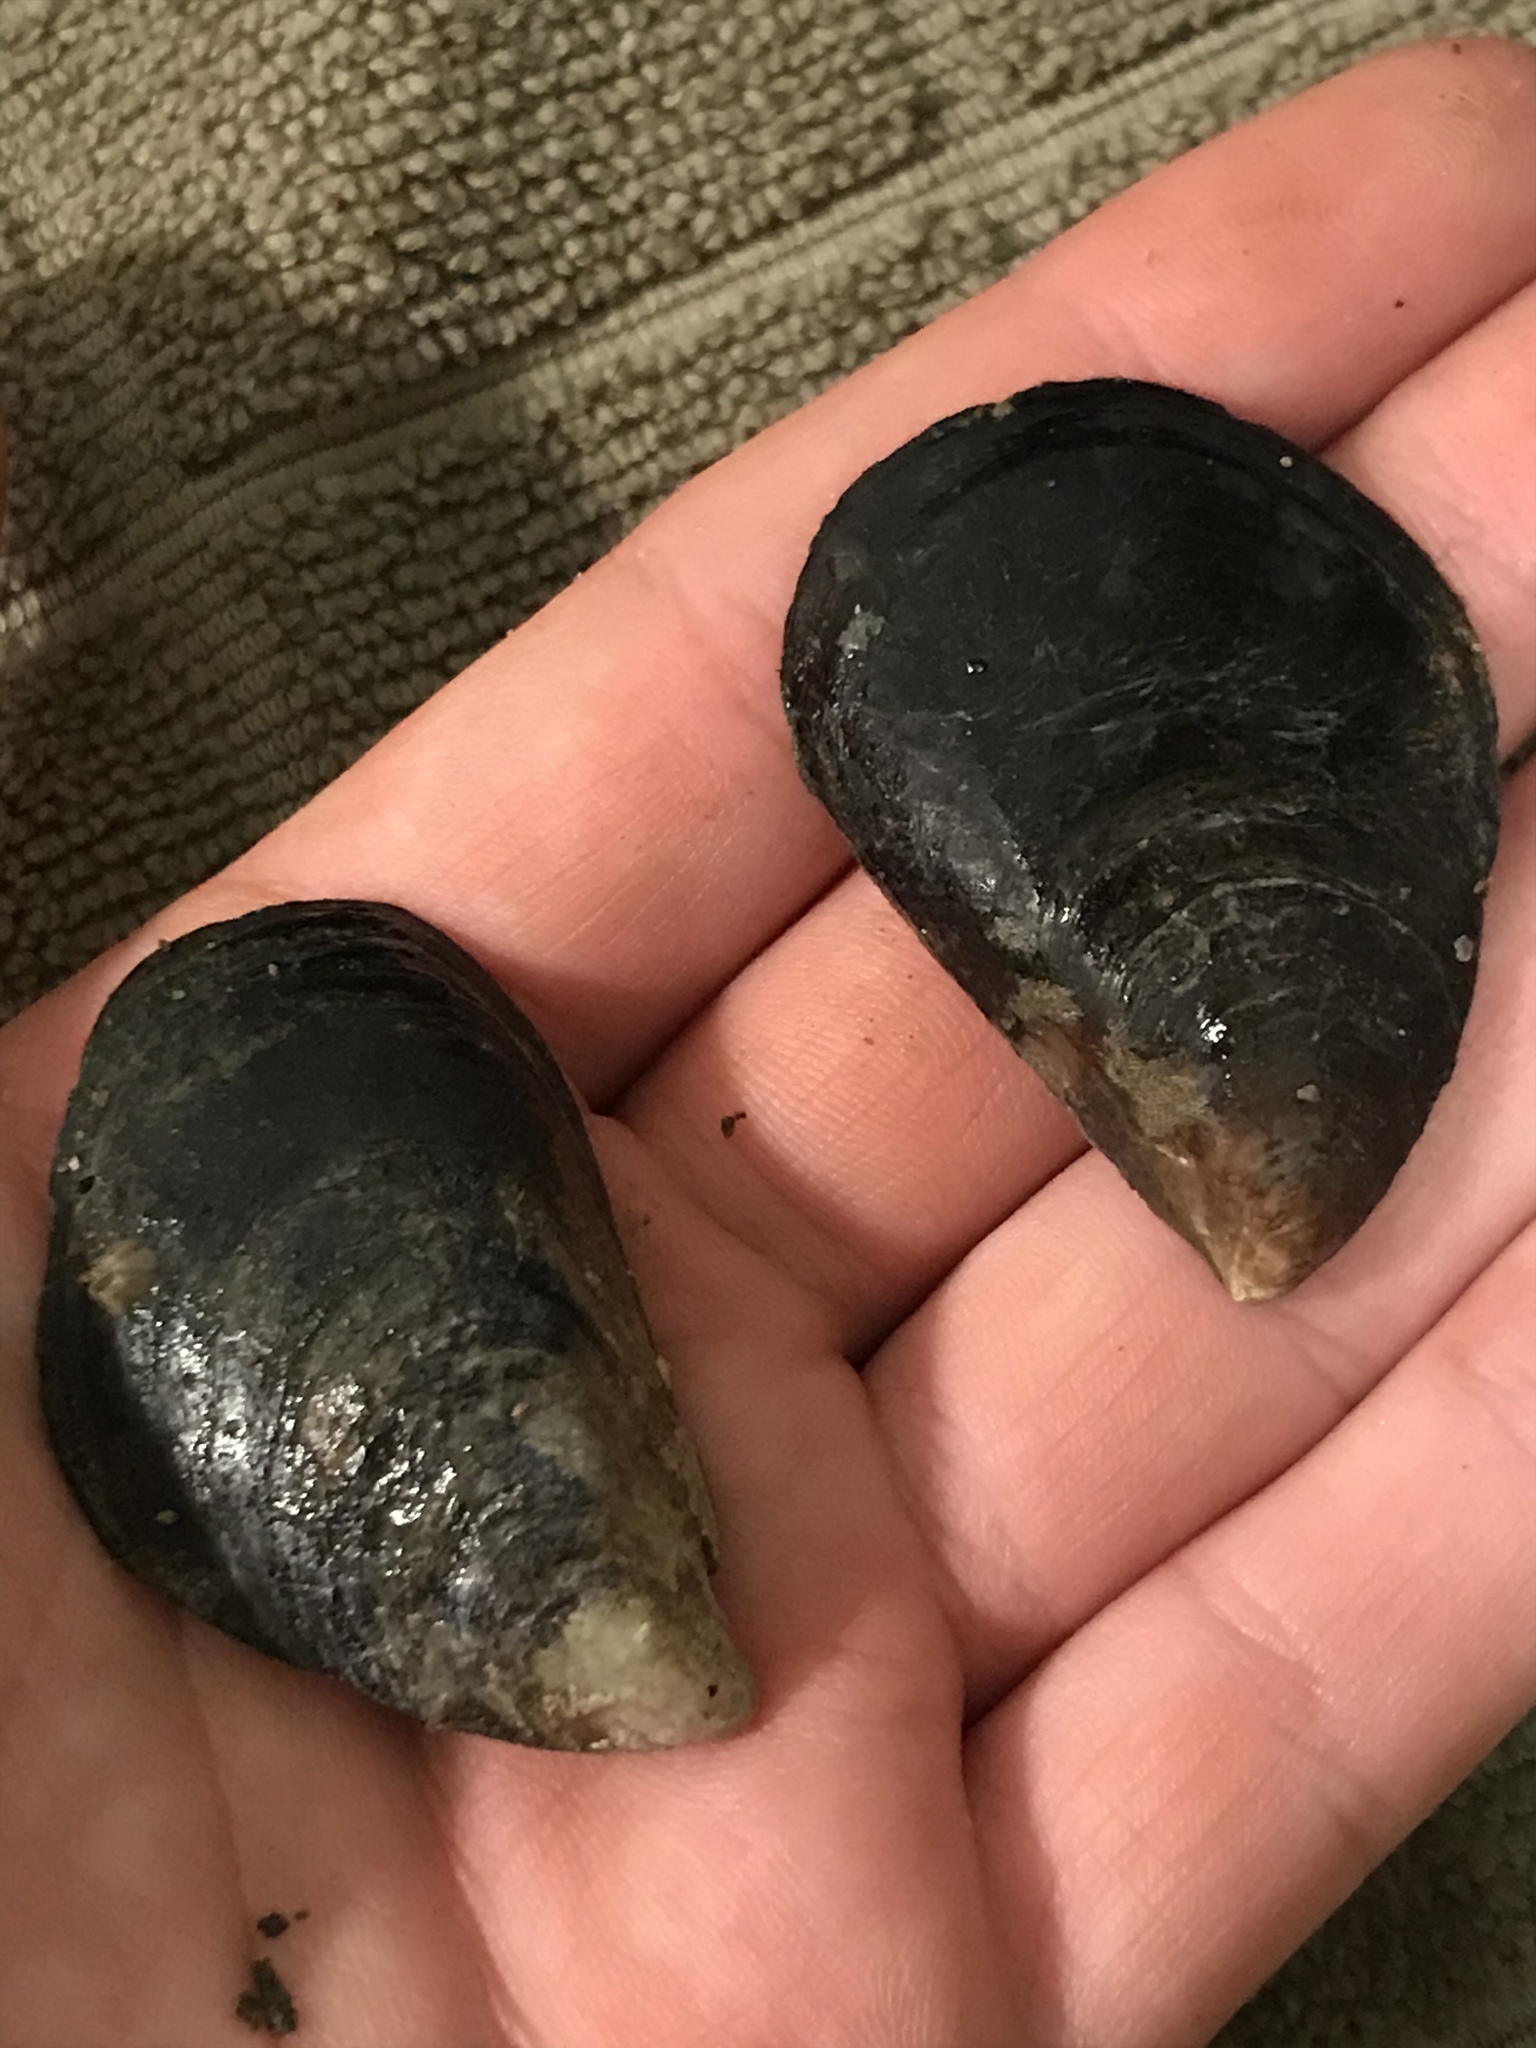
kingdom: Animalia
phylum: Mollusca
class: Bivalvia
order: Mytilida
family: Mytilidae
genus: Mytilus
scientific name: Mytilus
